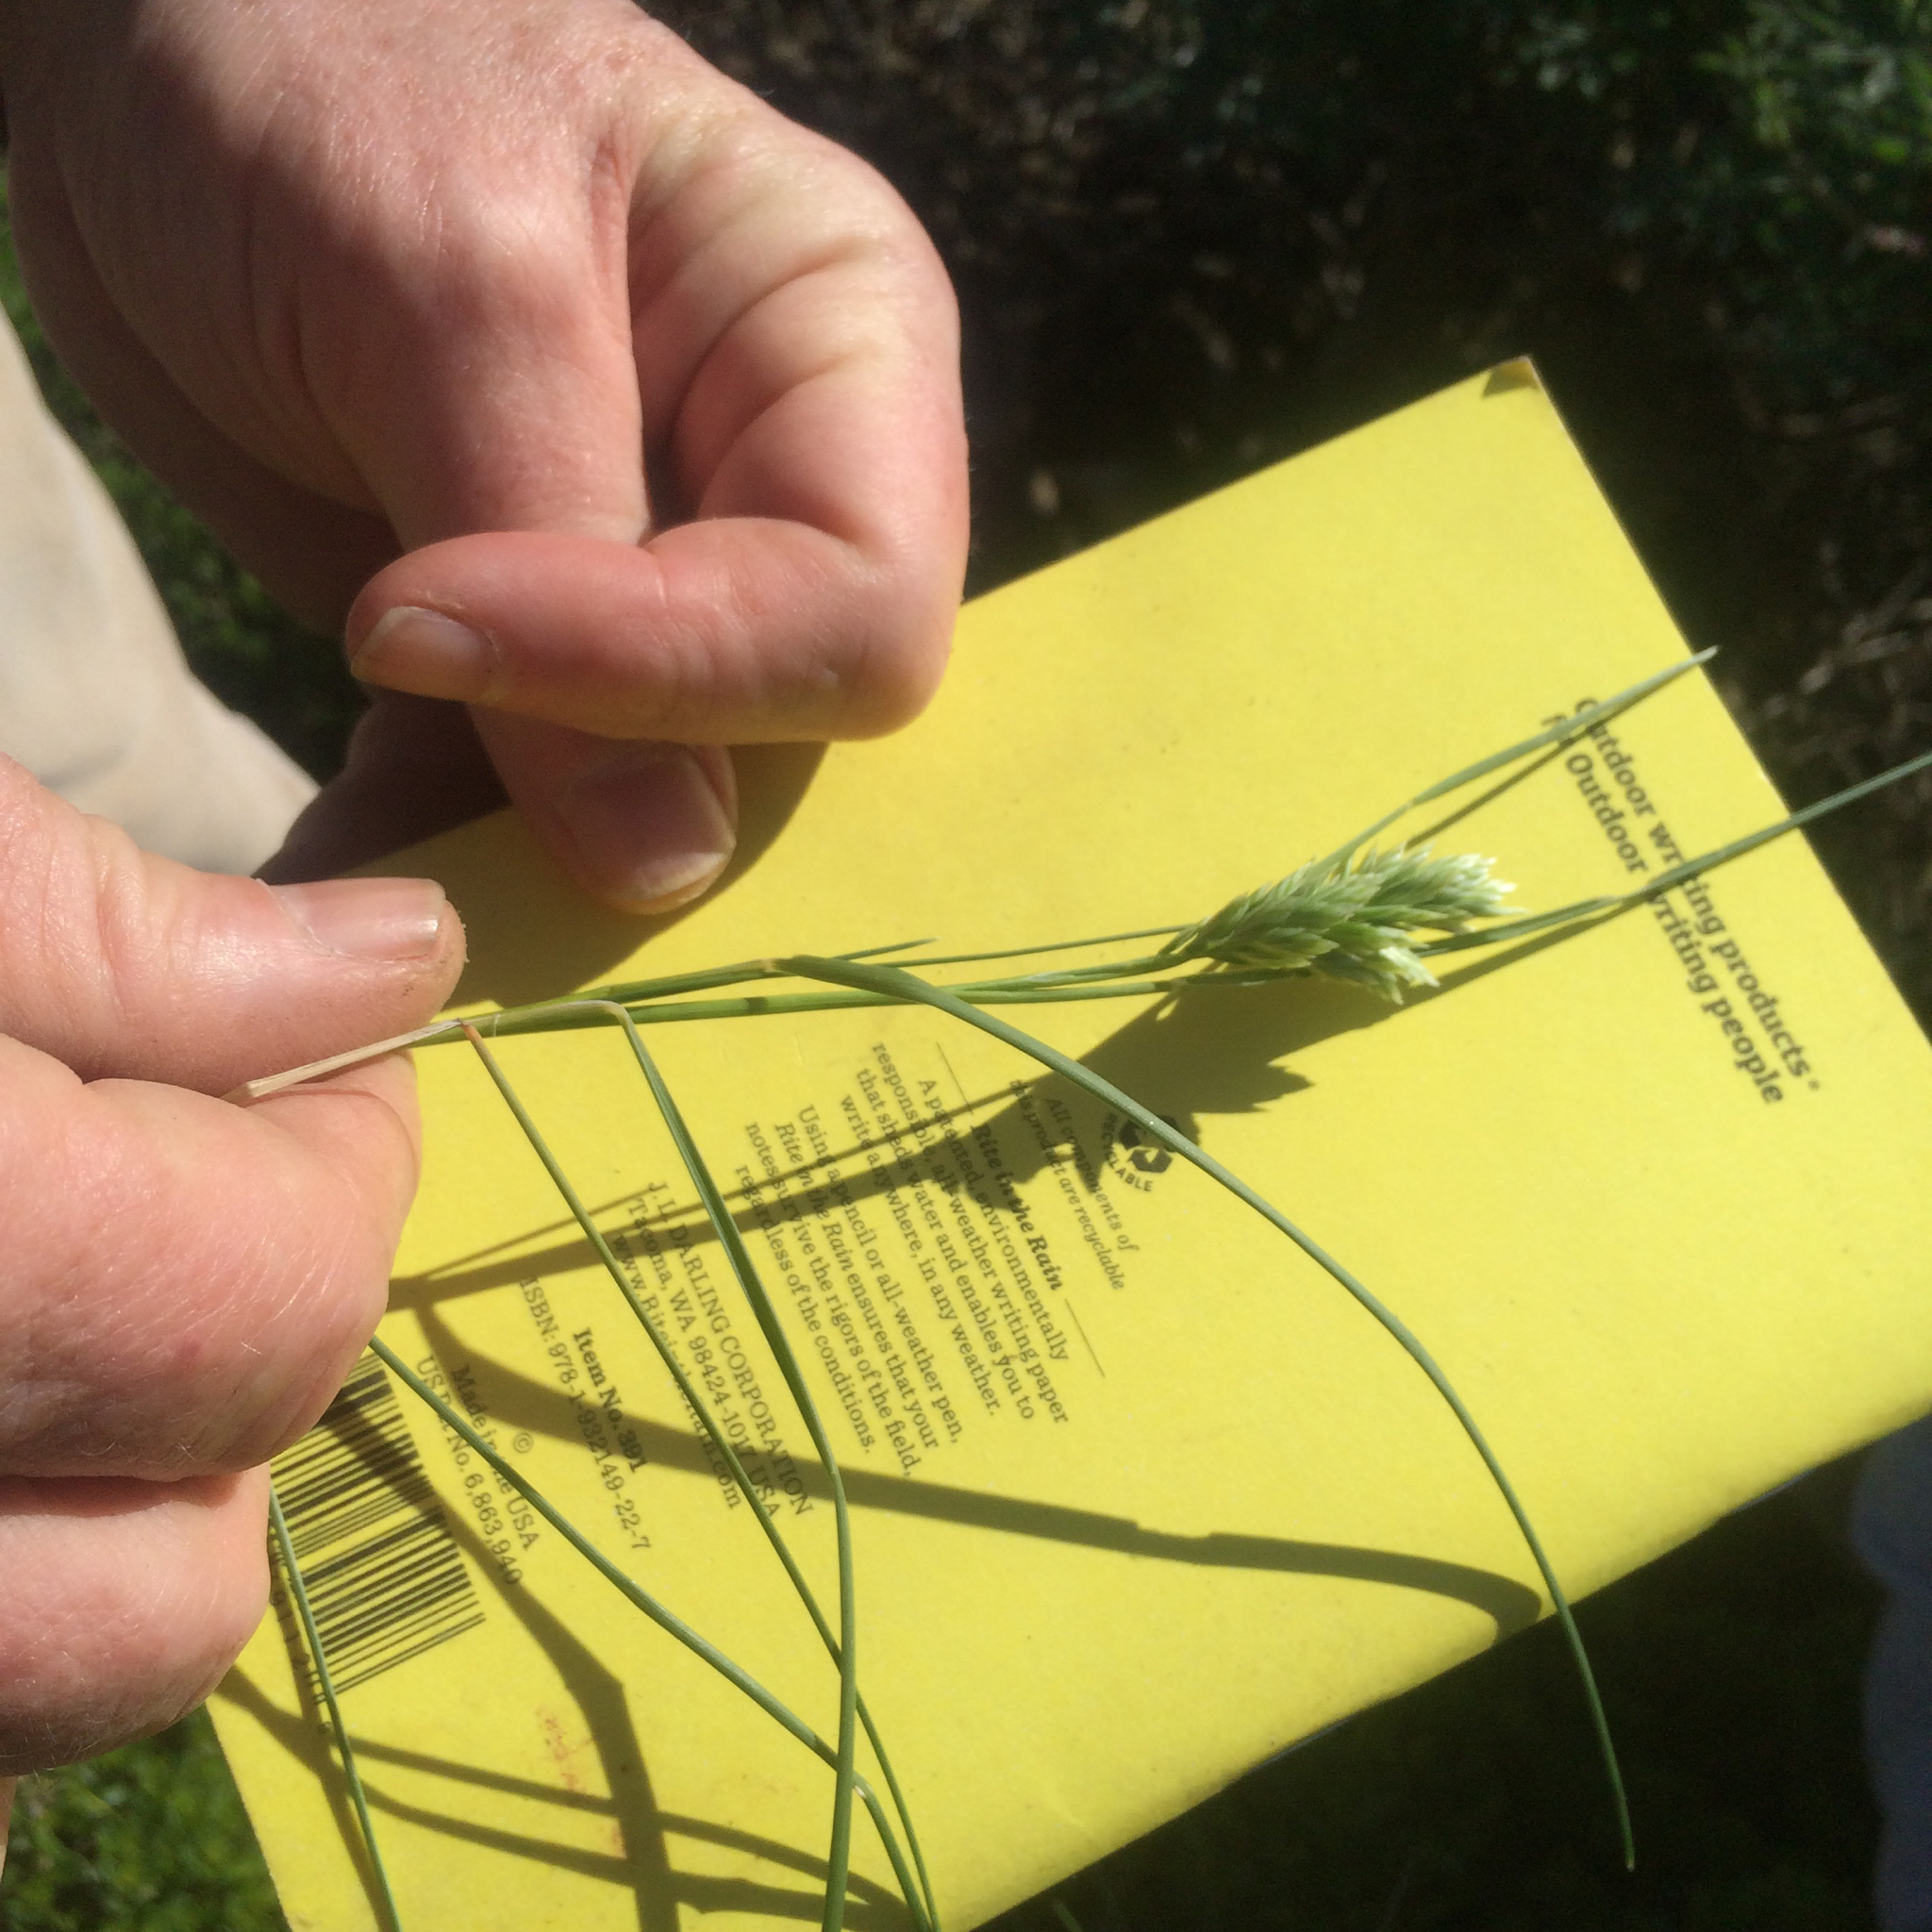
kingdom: Plantae
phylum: Tracheophyta
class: Liliopsida
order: Poales
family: Poaceae
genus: Poa
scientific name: Poa douglasii
